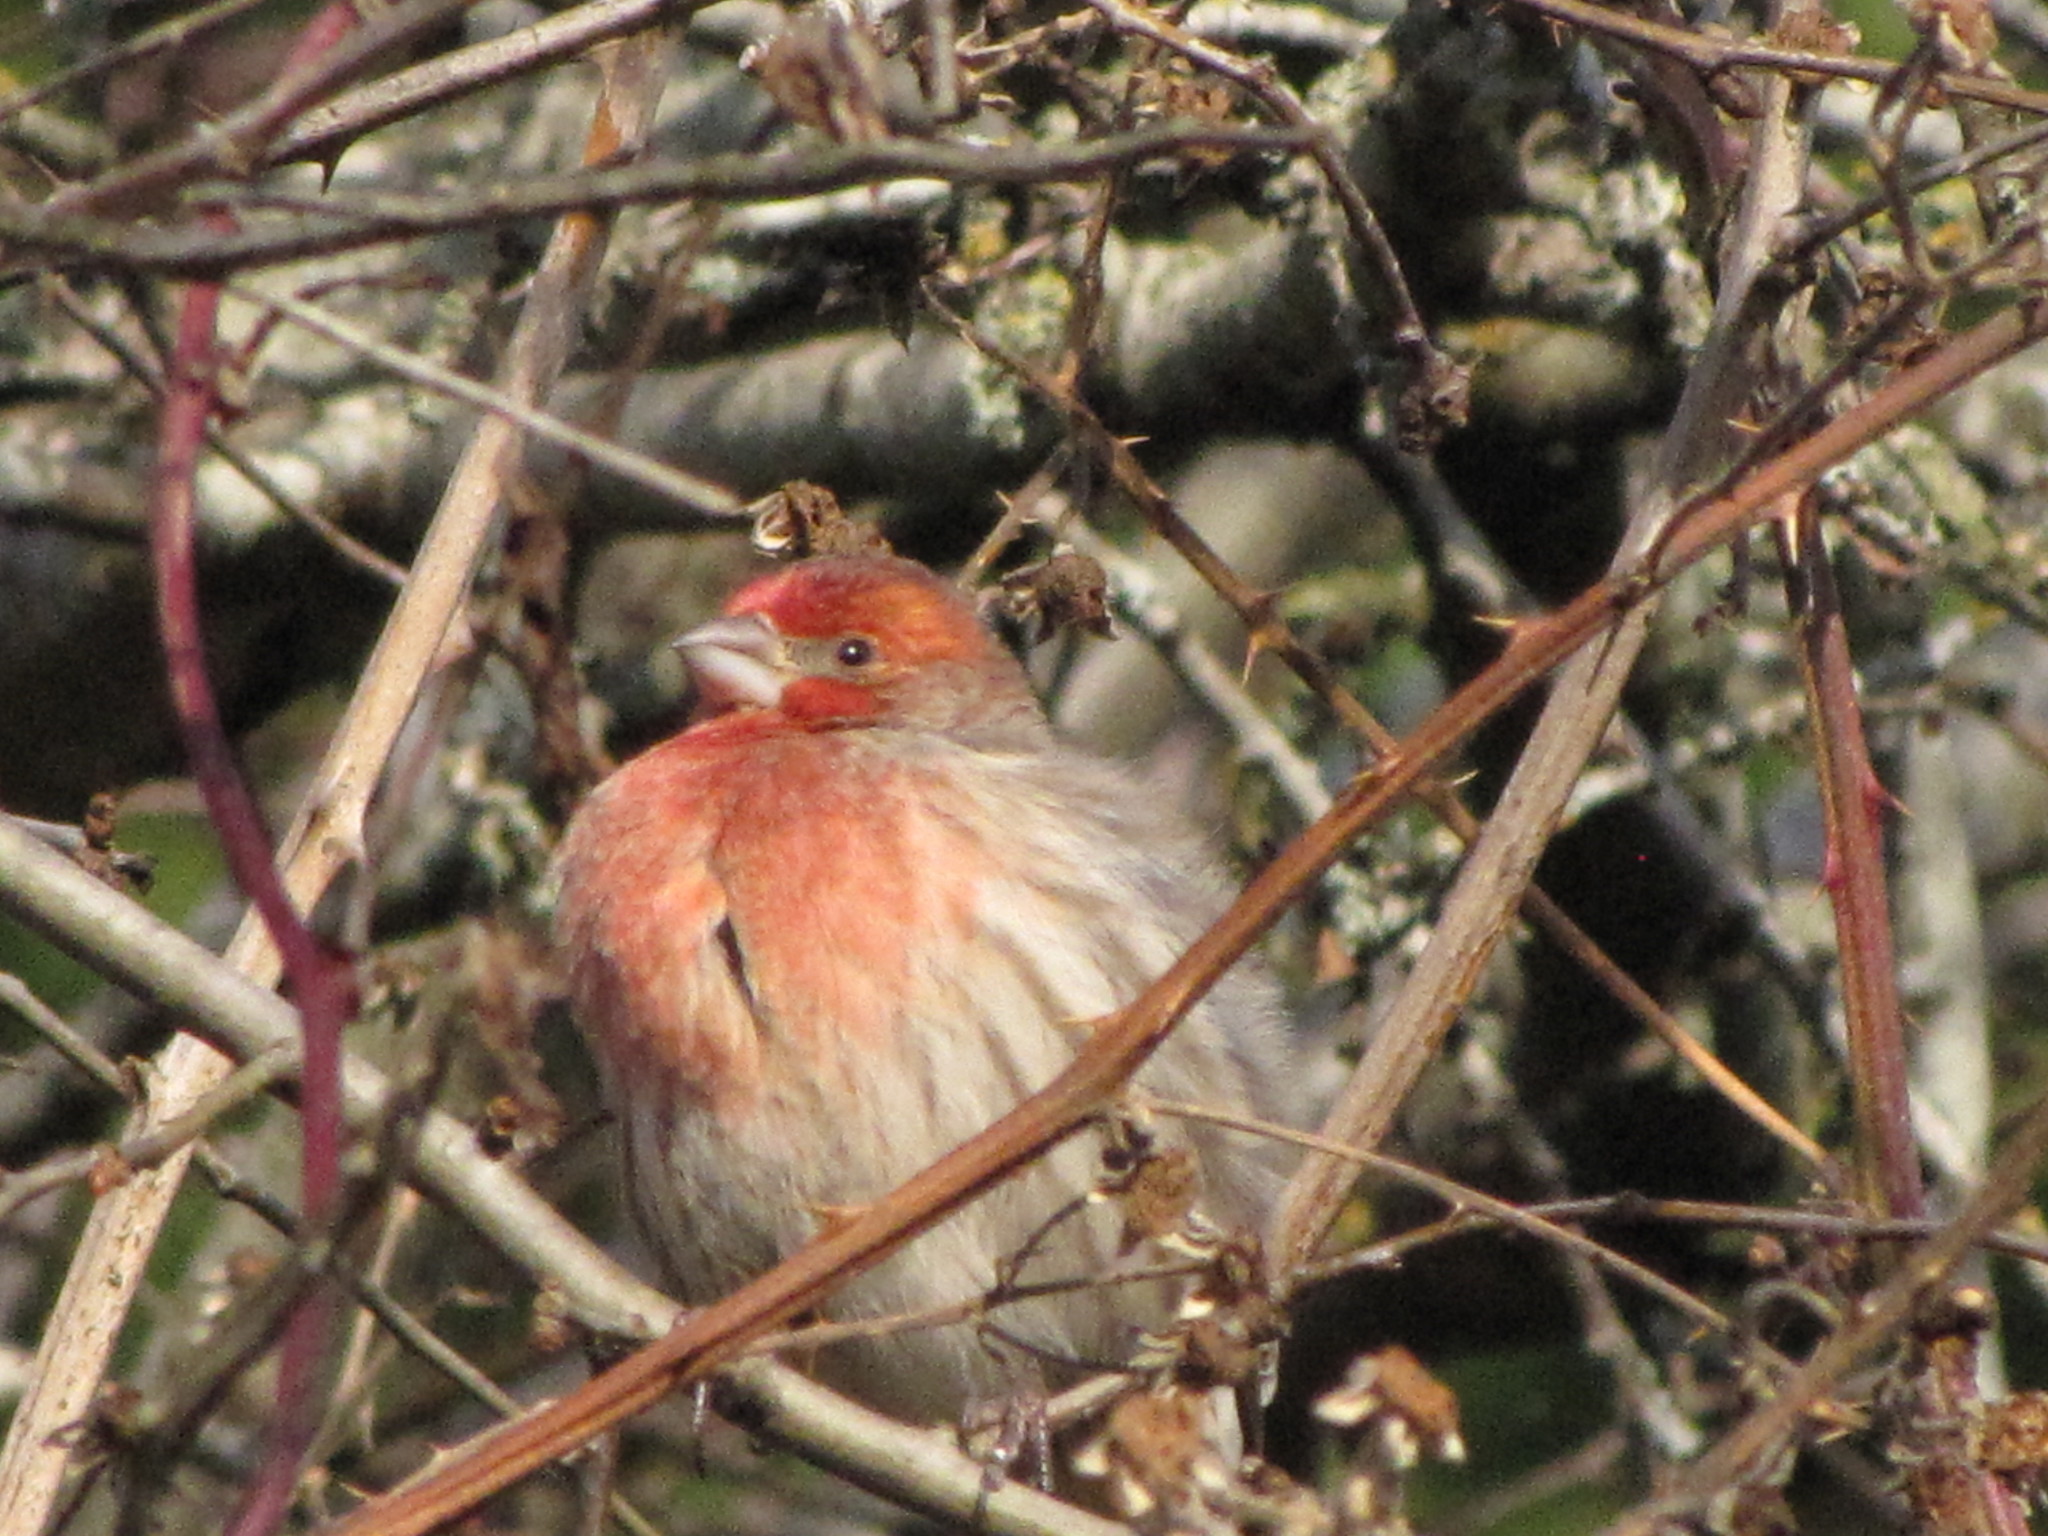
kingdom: Animalia
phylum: Chordata
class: Aves
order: Passeriformes
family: Fringillidae
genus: Haemorhous
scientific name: Haemorhous mexicanus
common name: House finch
